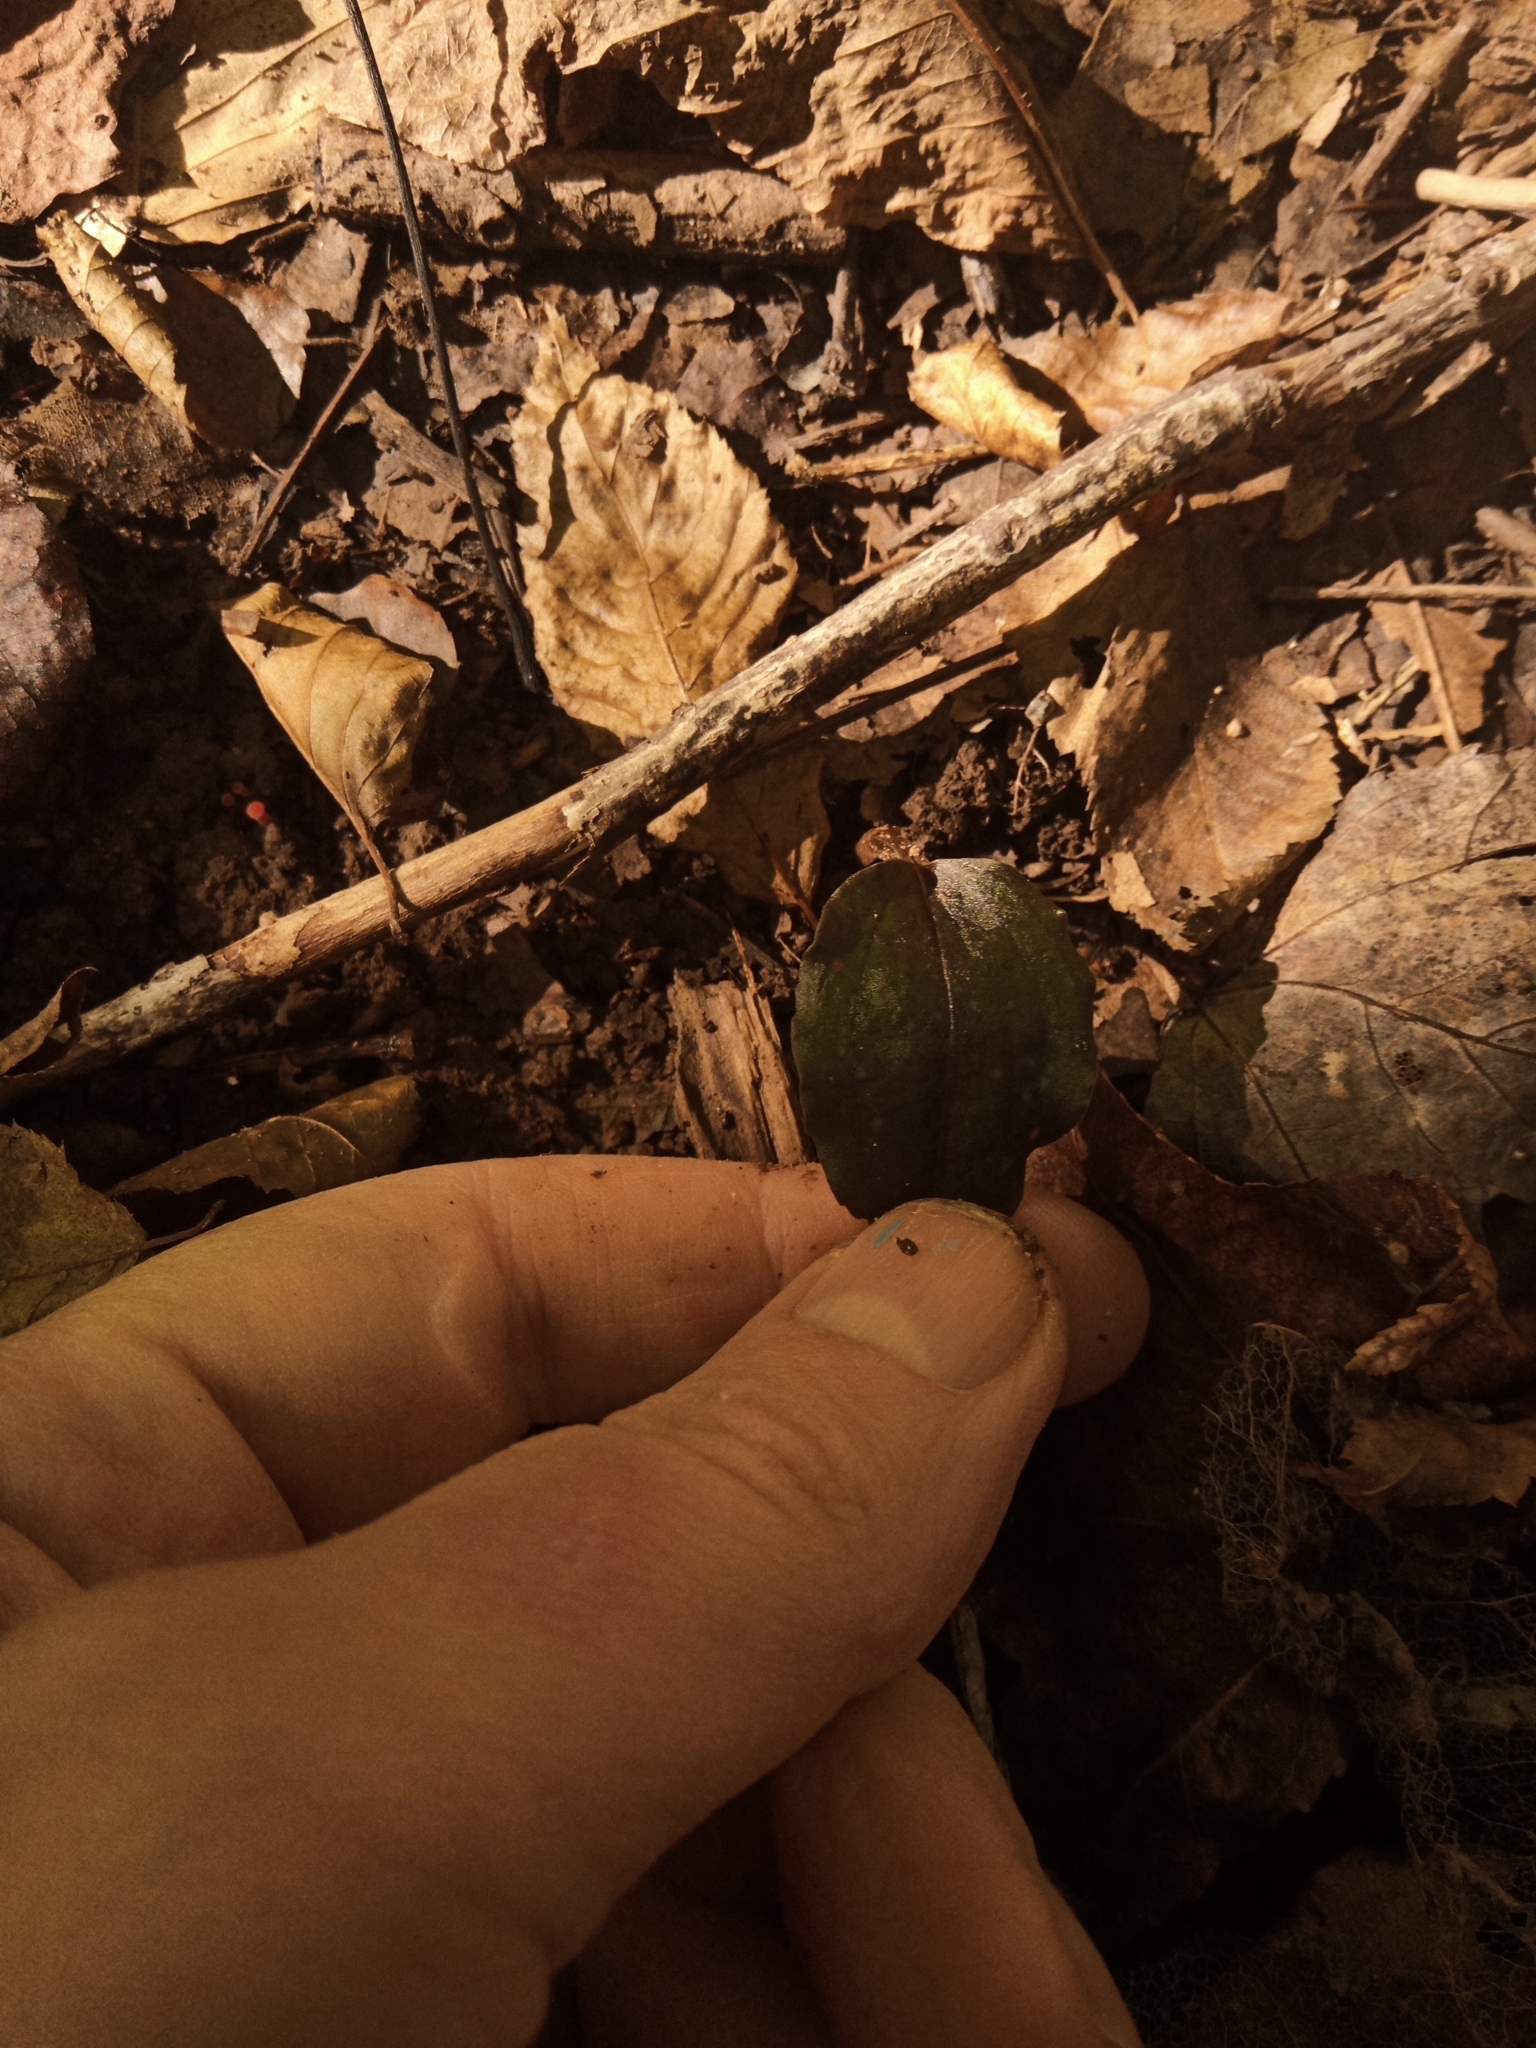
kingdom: Plantae
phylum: Tracheophyta
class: Liliopsida
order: Asparagales
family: Orchidaceae
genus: Tipularia
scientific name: Tipularia discolor
